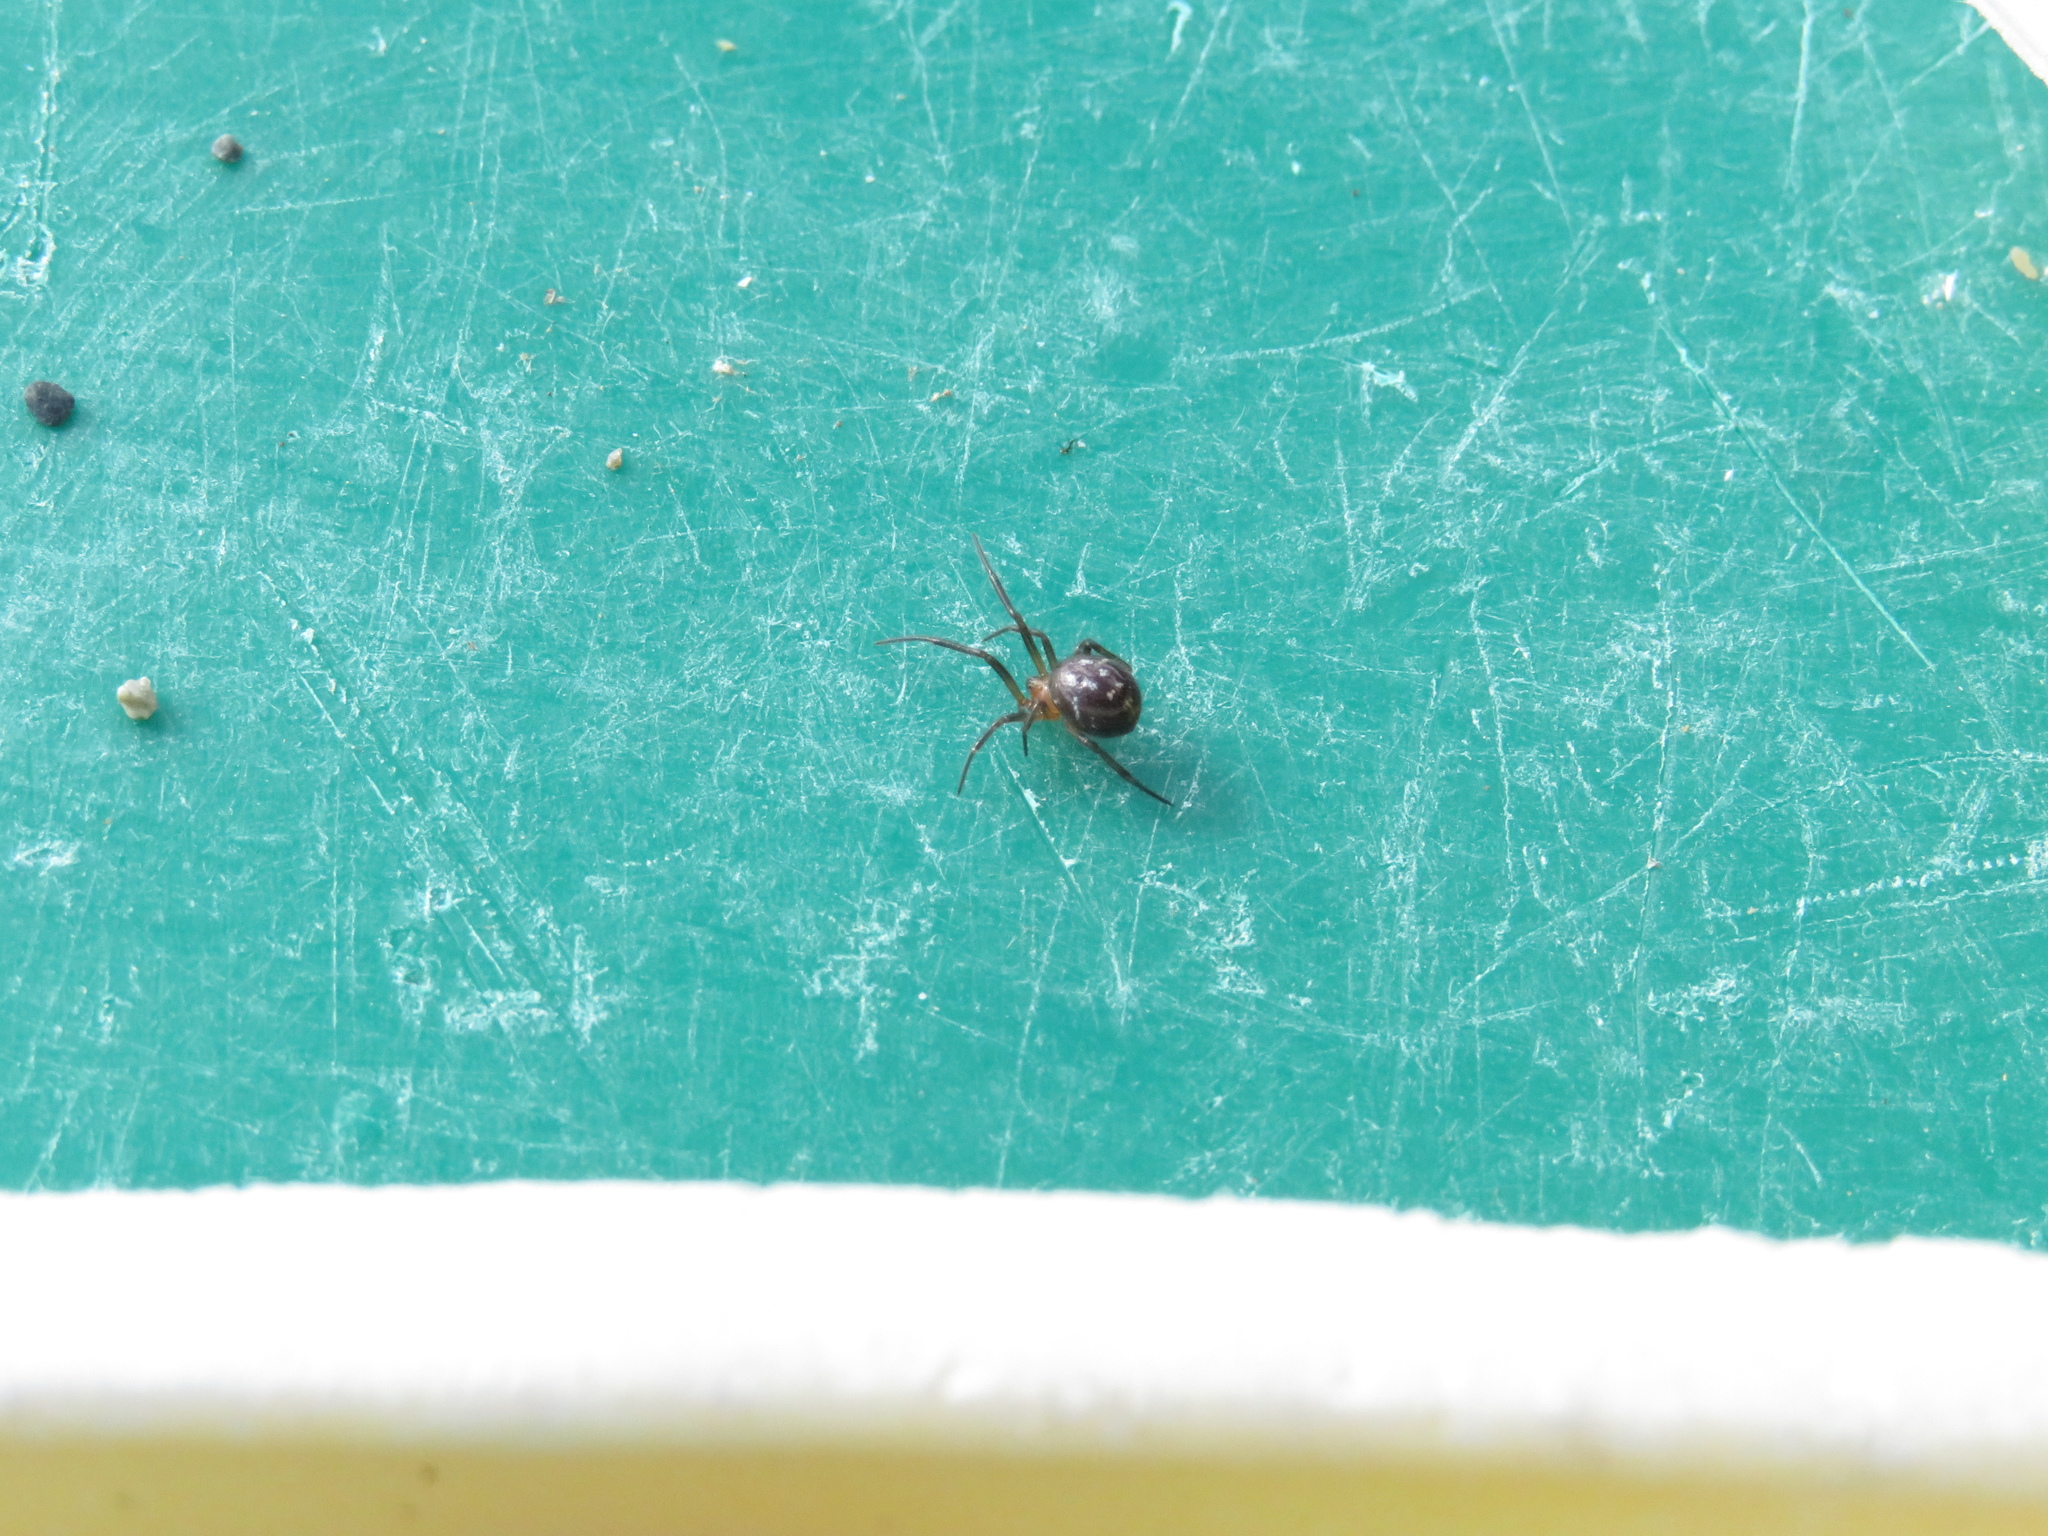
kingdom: Animalia
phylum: Arthropoda
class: Arachnida
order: Araneae
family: Theridiidae
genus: Steatoda
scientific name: Steatoda capensis
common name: Cobweb weaver
